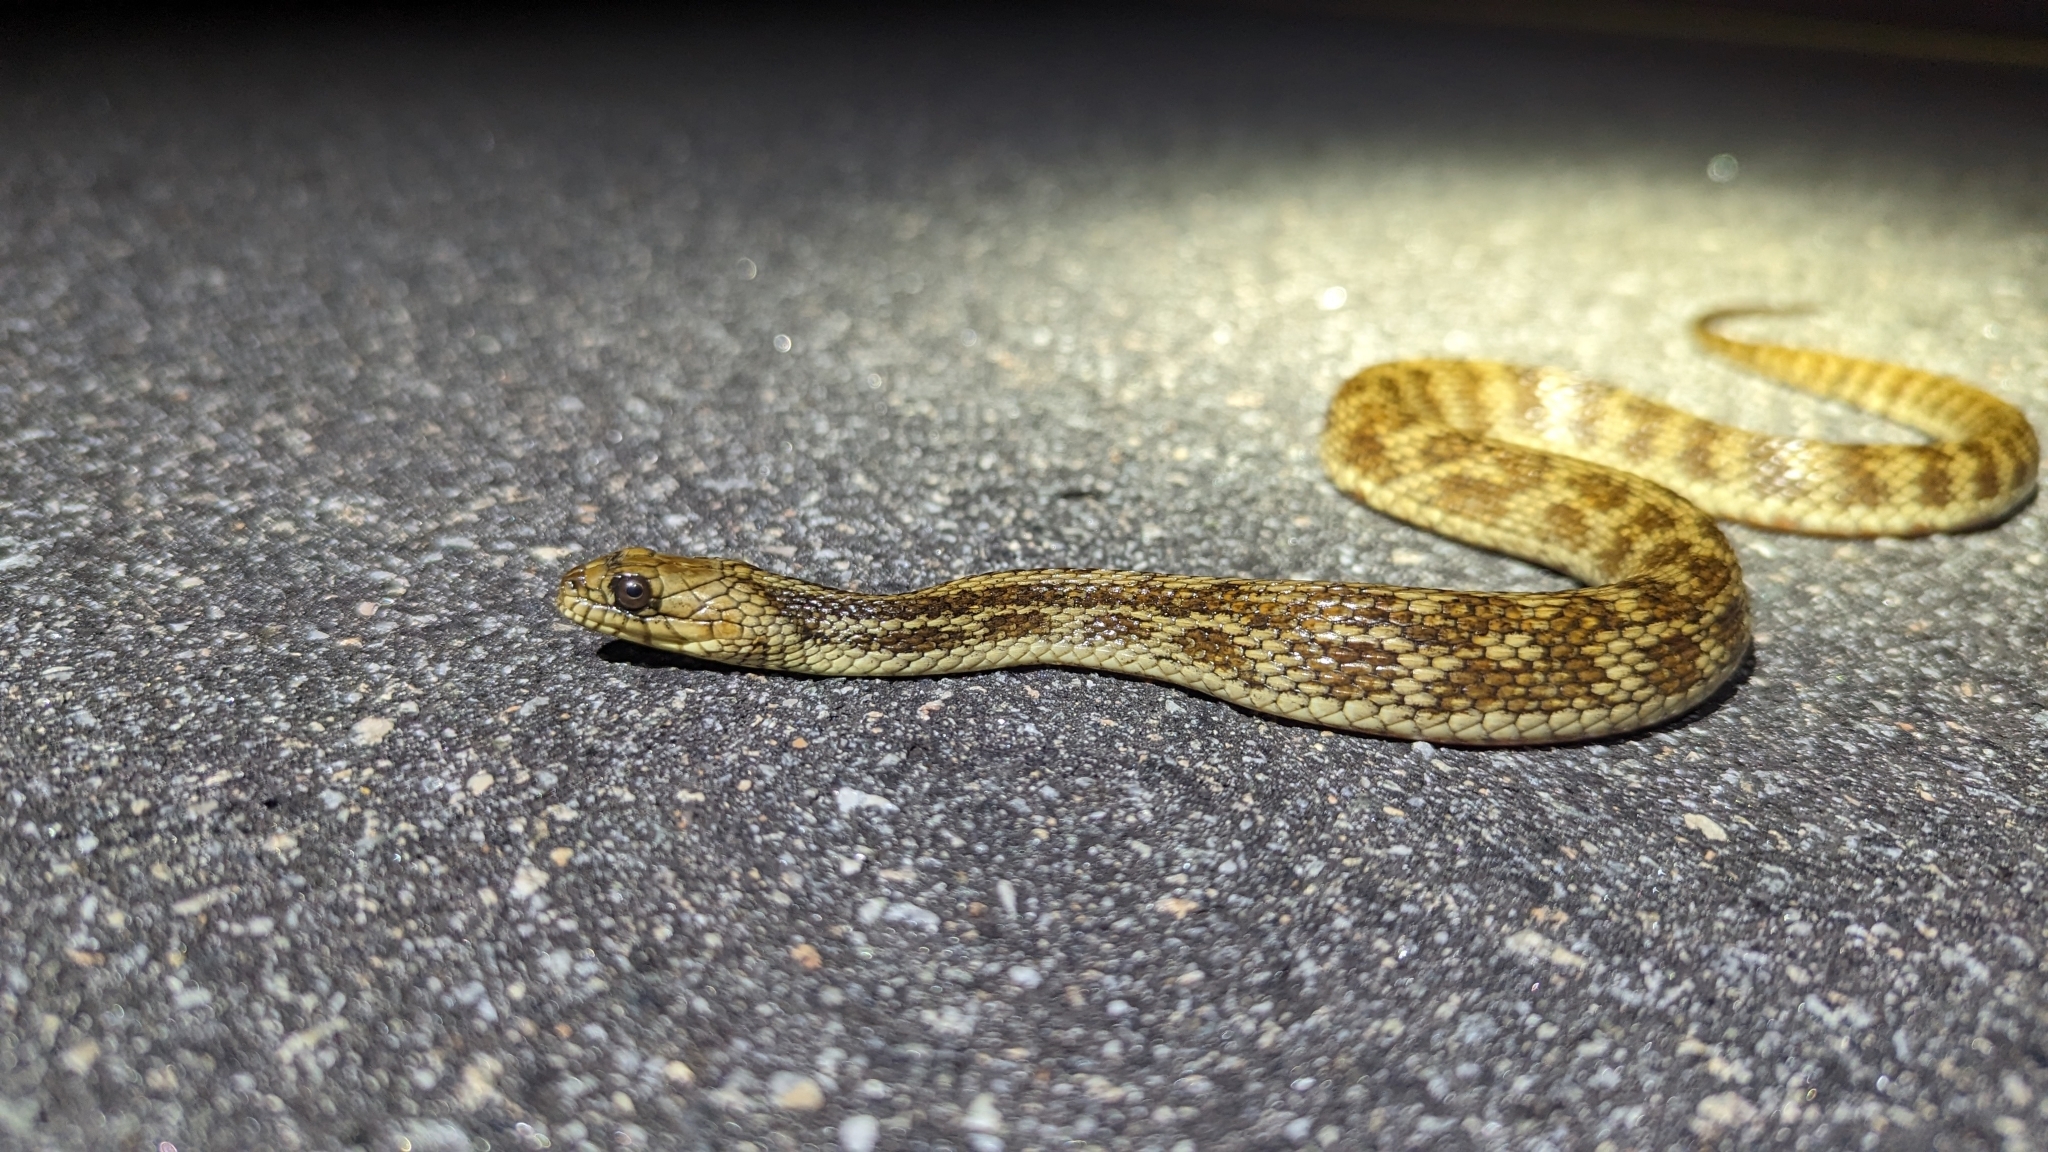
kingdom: Animalia
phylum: Chordata
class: Squamata
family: Colubridae
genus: Nerodia
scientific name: Nerodia clarkii
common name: Atlantic saltmarsh snake
